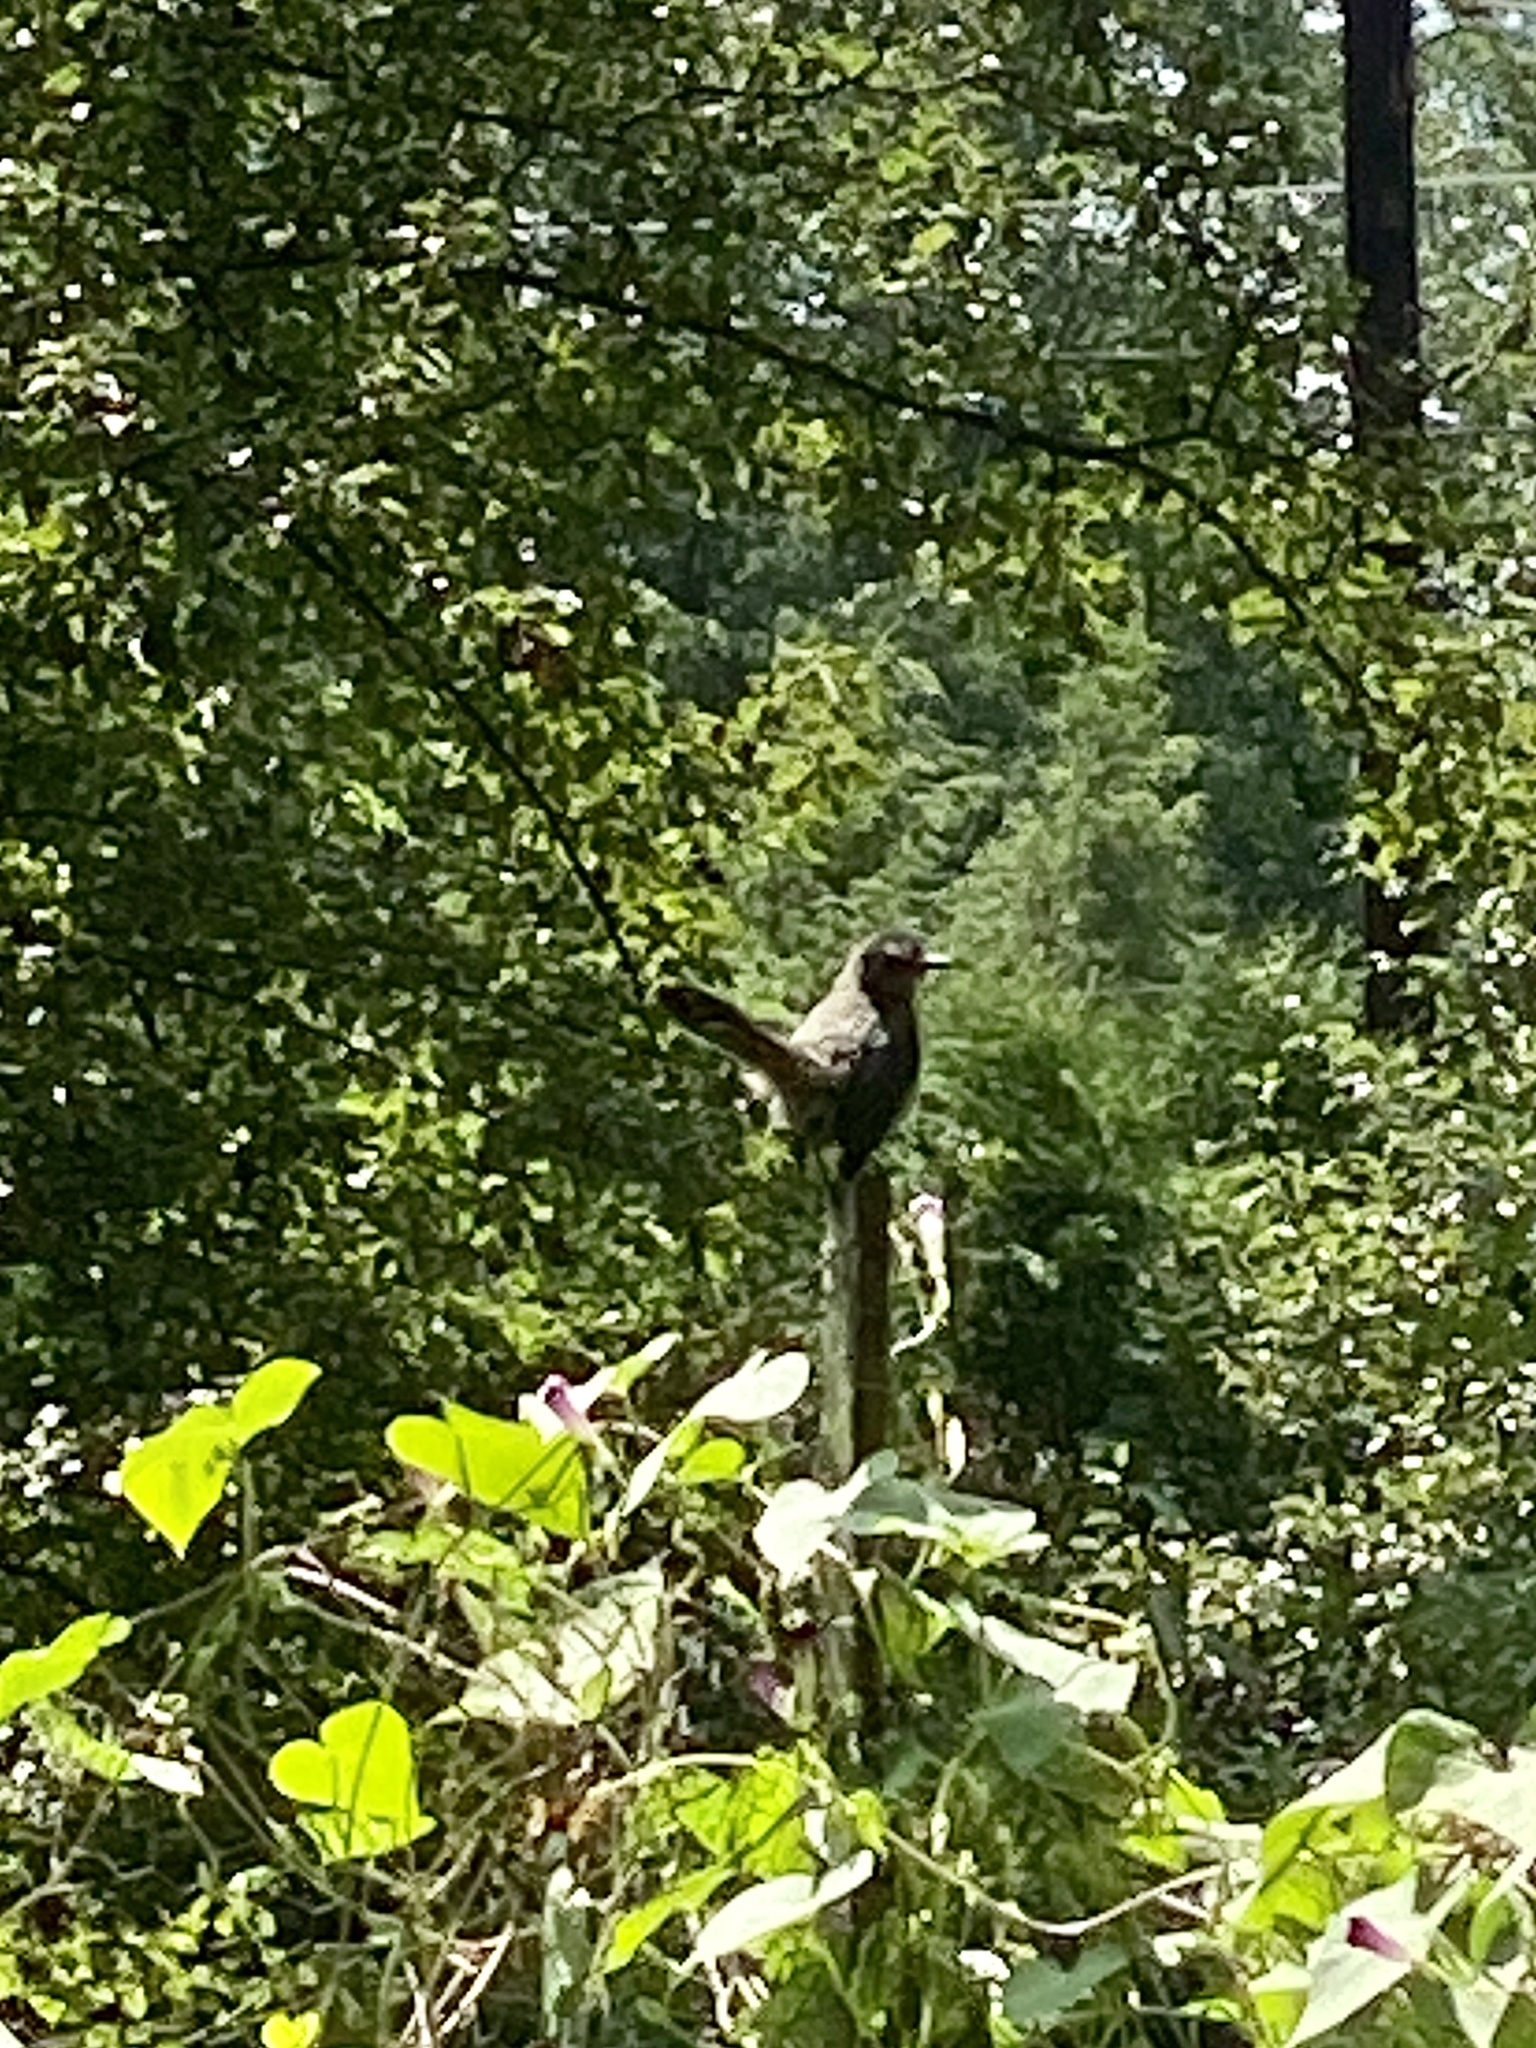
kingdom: Animalia
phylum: Chordata
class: Aves
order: Passeriformes
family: Mimidae
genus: Dumetella
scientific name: Dumetella carolinensis
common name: Gray catbird
